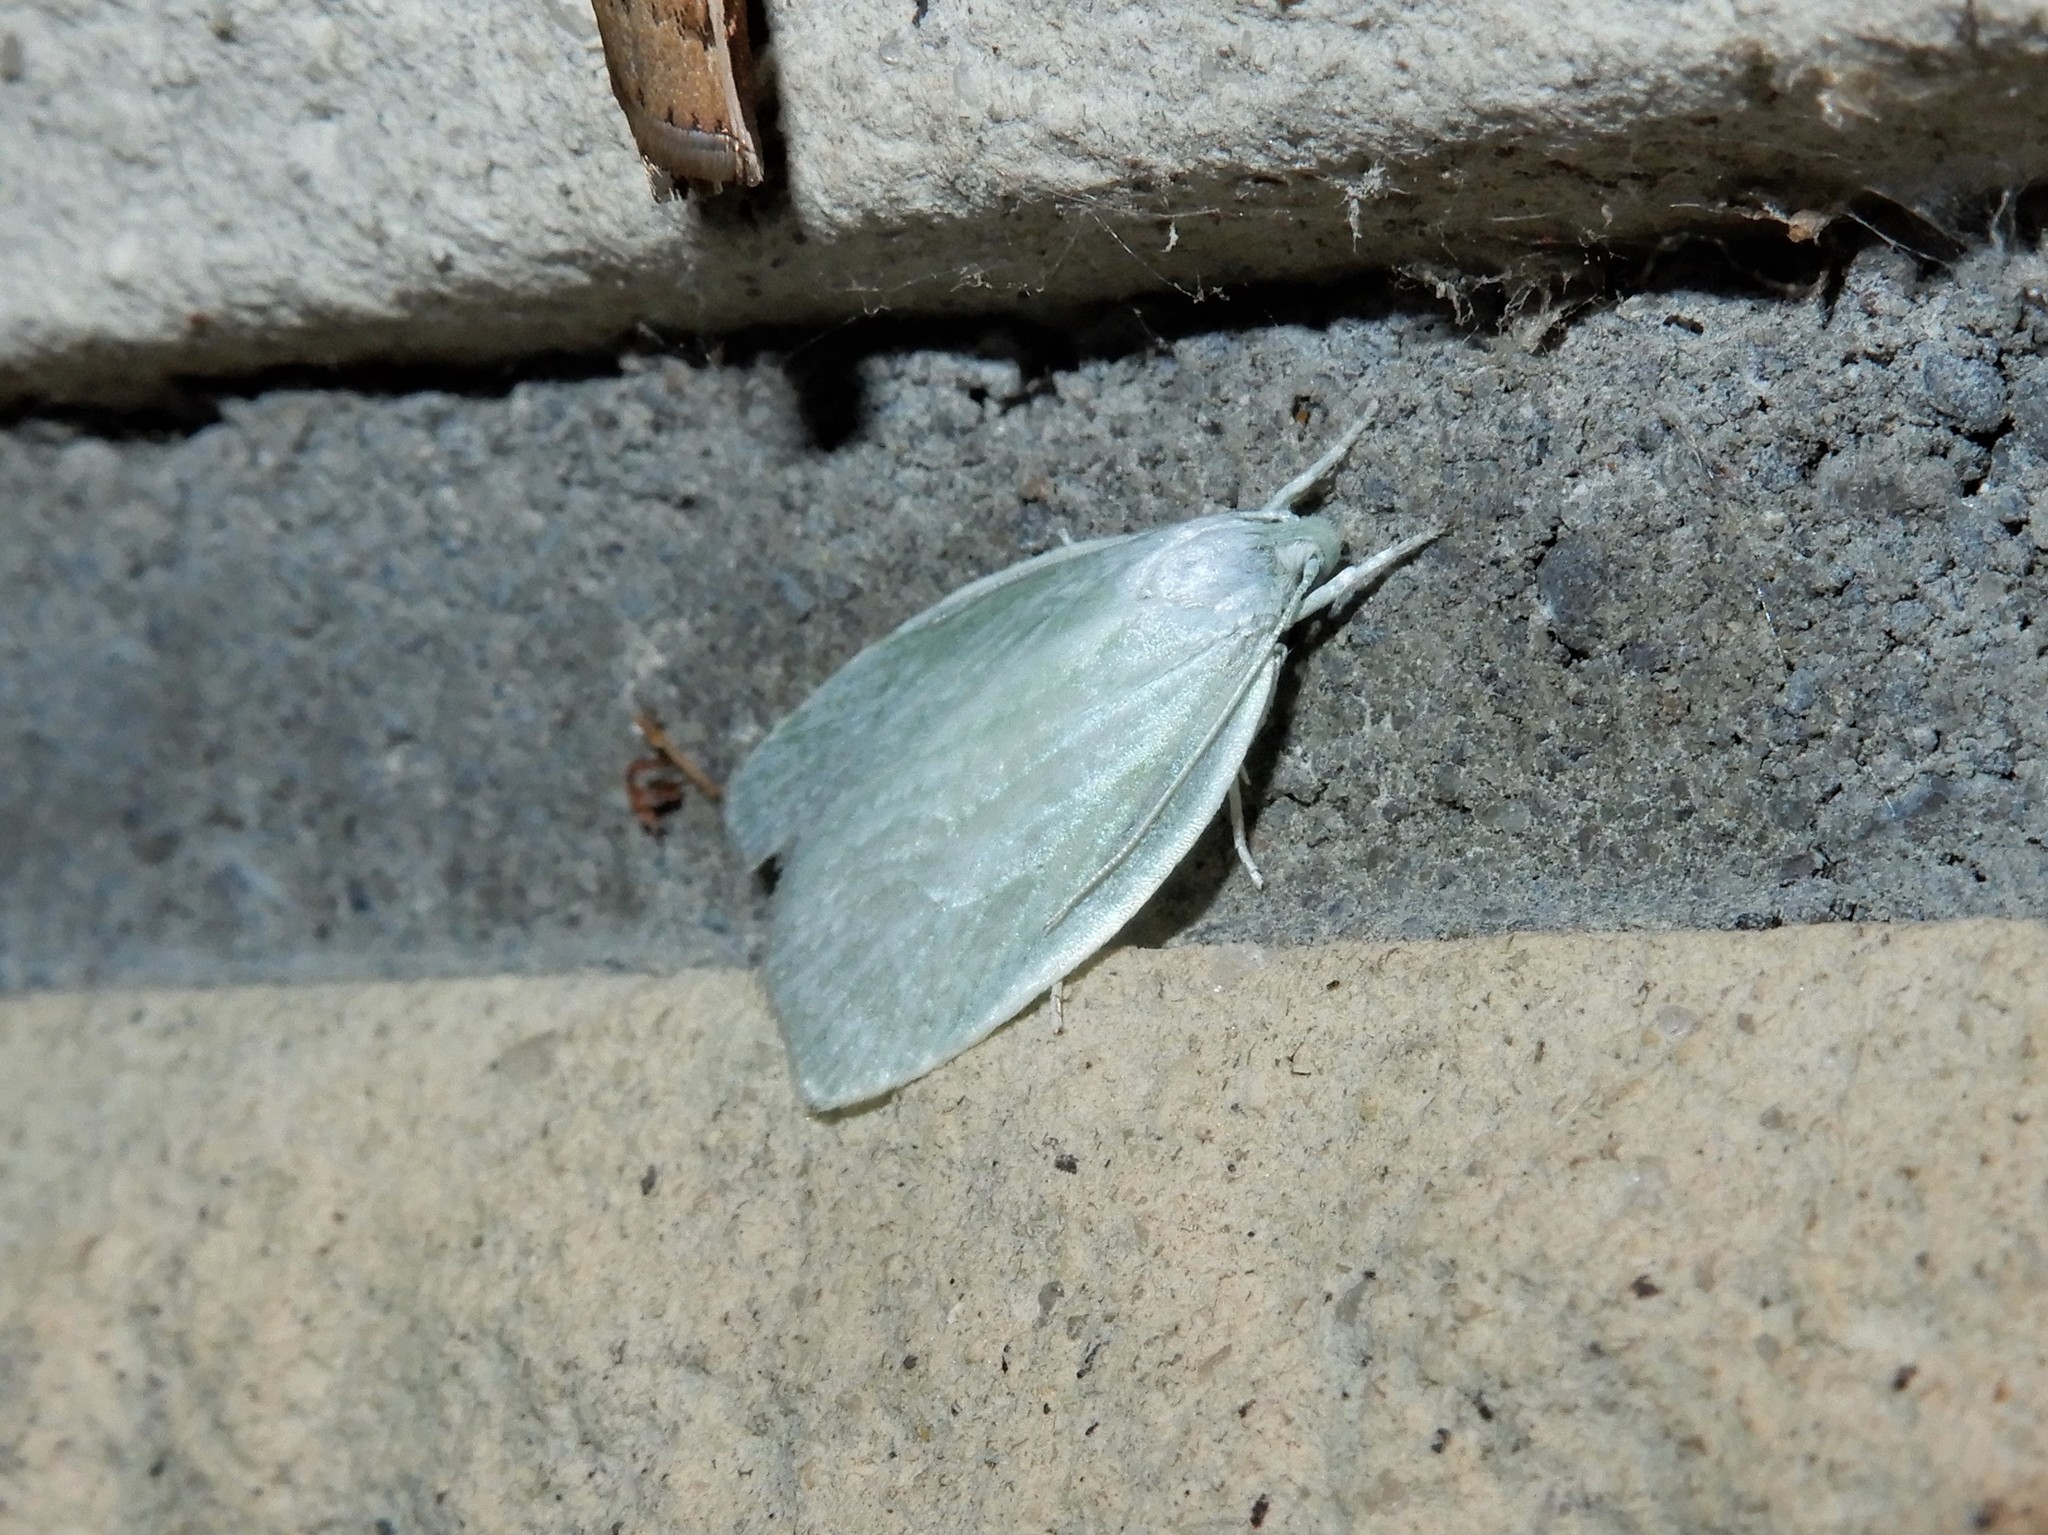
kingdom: Animalia
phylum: Arthropoda
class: Insecta
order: Lepidoptera
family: Oecophoridae
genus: Nymphostola
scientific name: Nymphostola galactina
